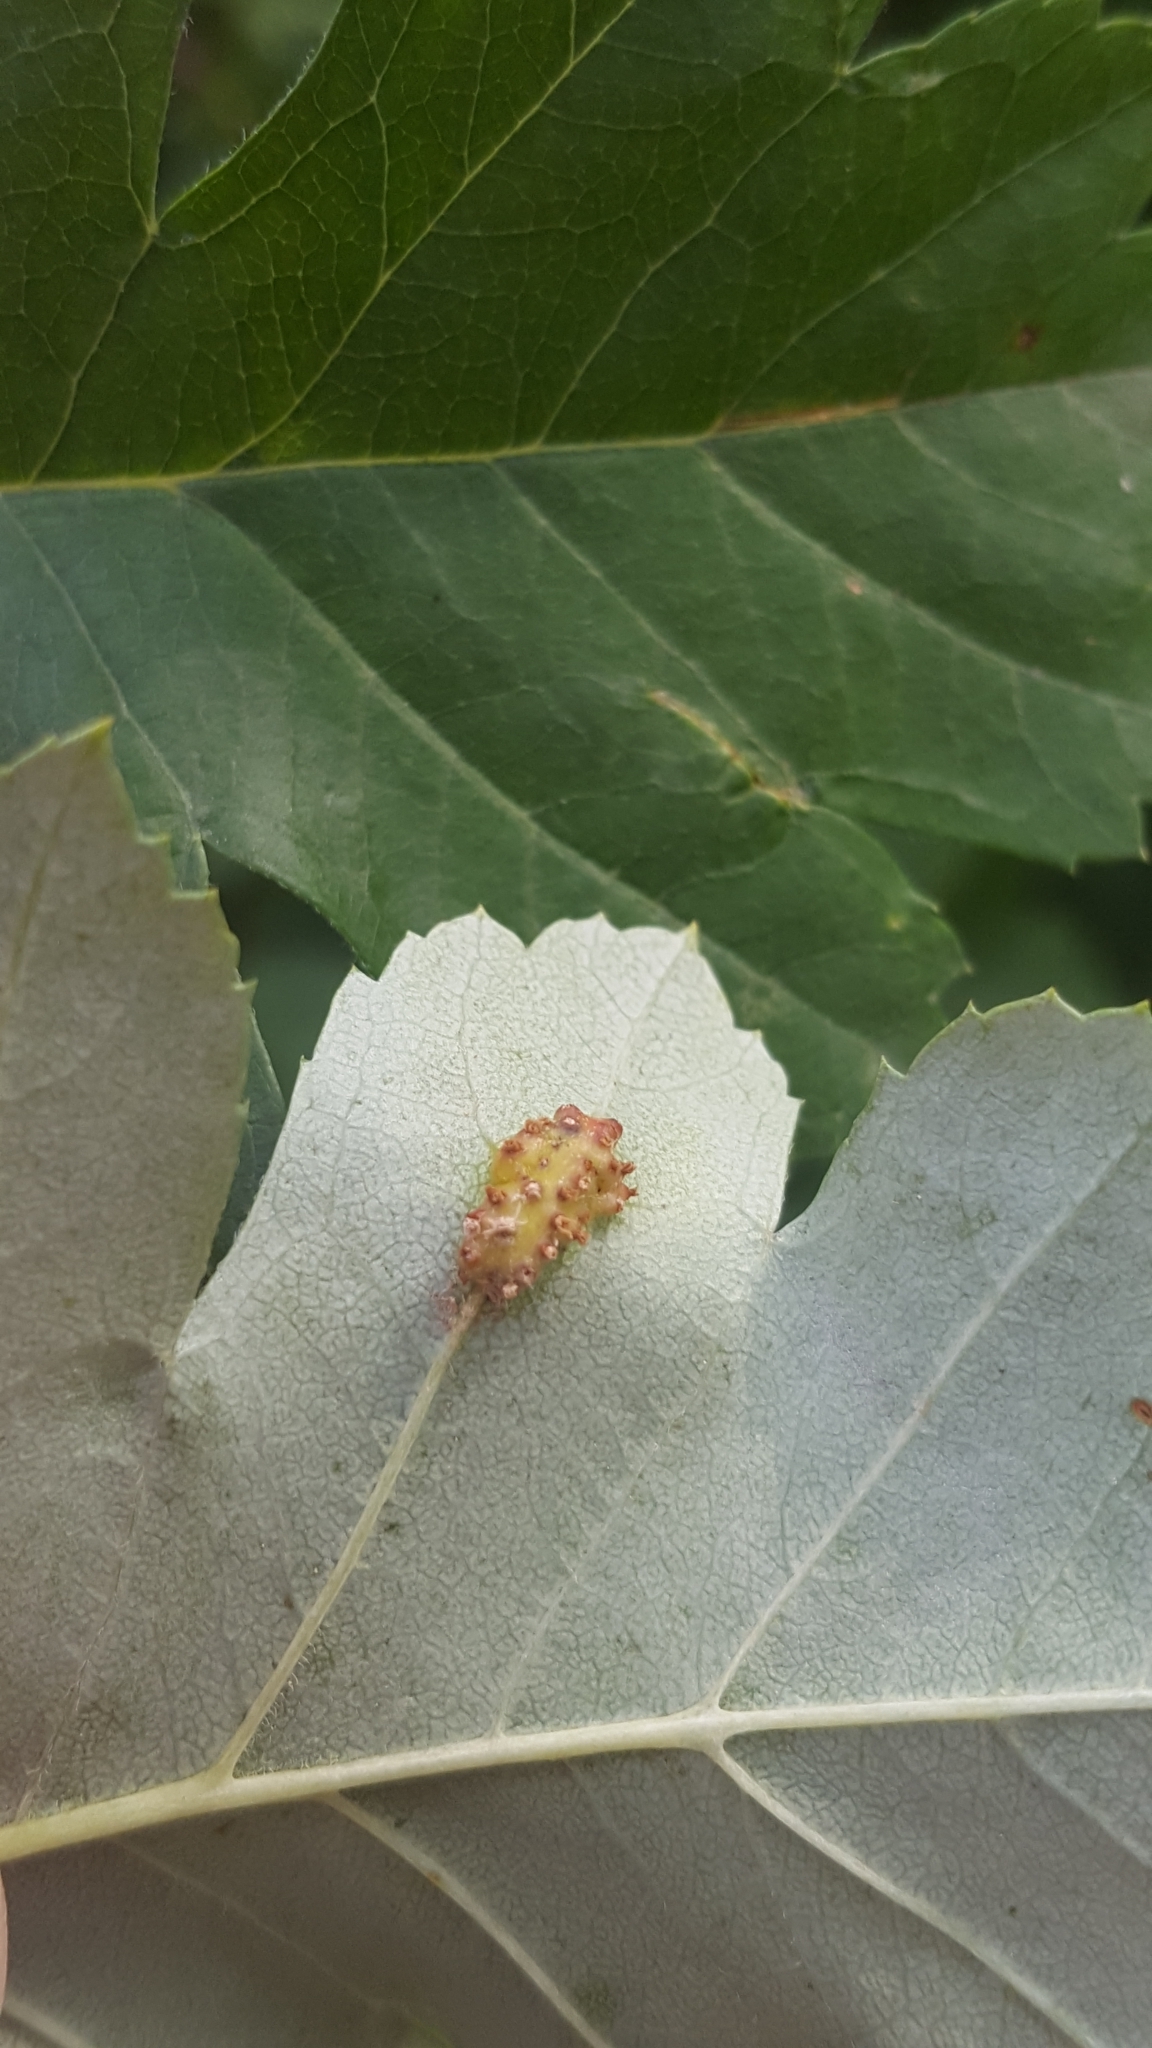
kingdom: Fungi
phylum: Basidiomycota
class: Pucciniomycetes
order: Pucciniales
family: Gymnosporangiaceae
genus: Gymnosporangium
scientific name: Gymnosporangium clavariiforme
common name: Tongues of fire
